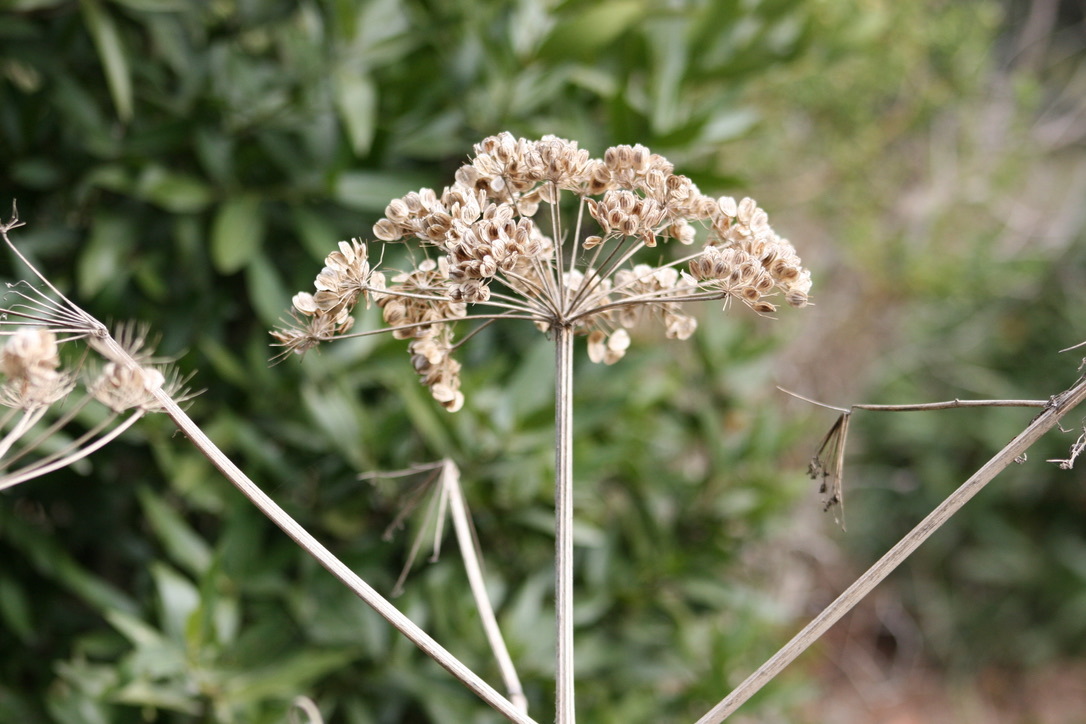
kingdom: Plantae
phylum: Tracheophyta
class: Magnoliopsida
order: Apiales
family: Apiaceae
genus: Heracleum
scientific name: Heracleum maximum
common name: American cow parsnip
